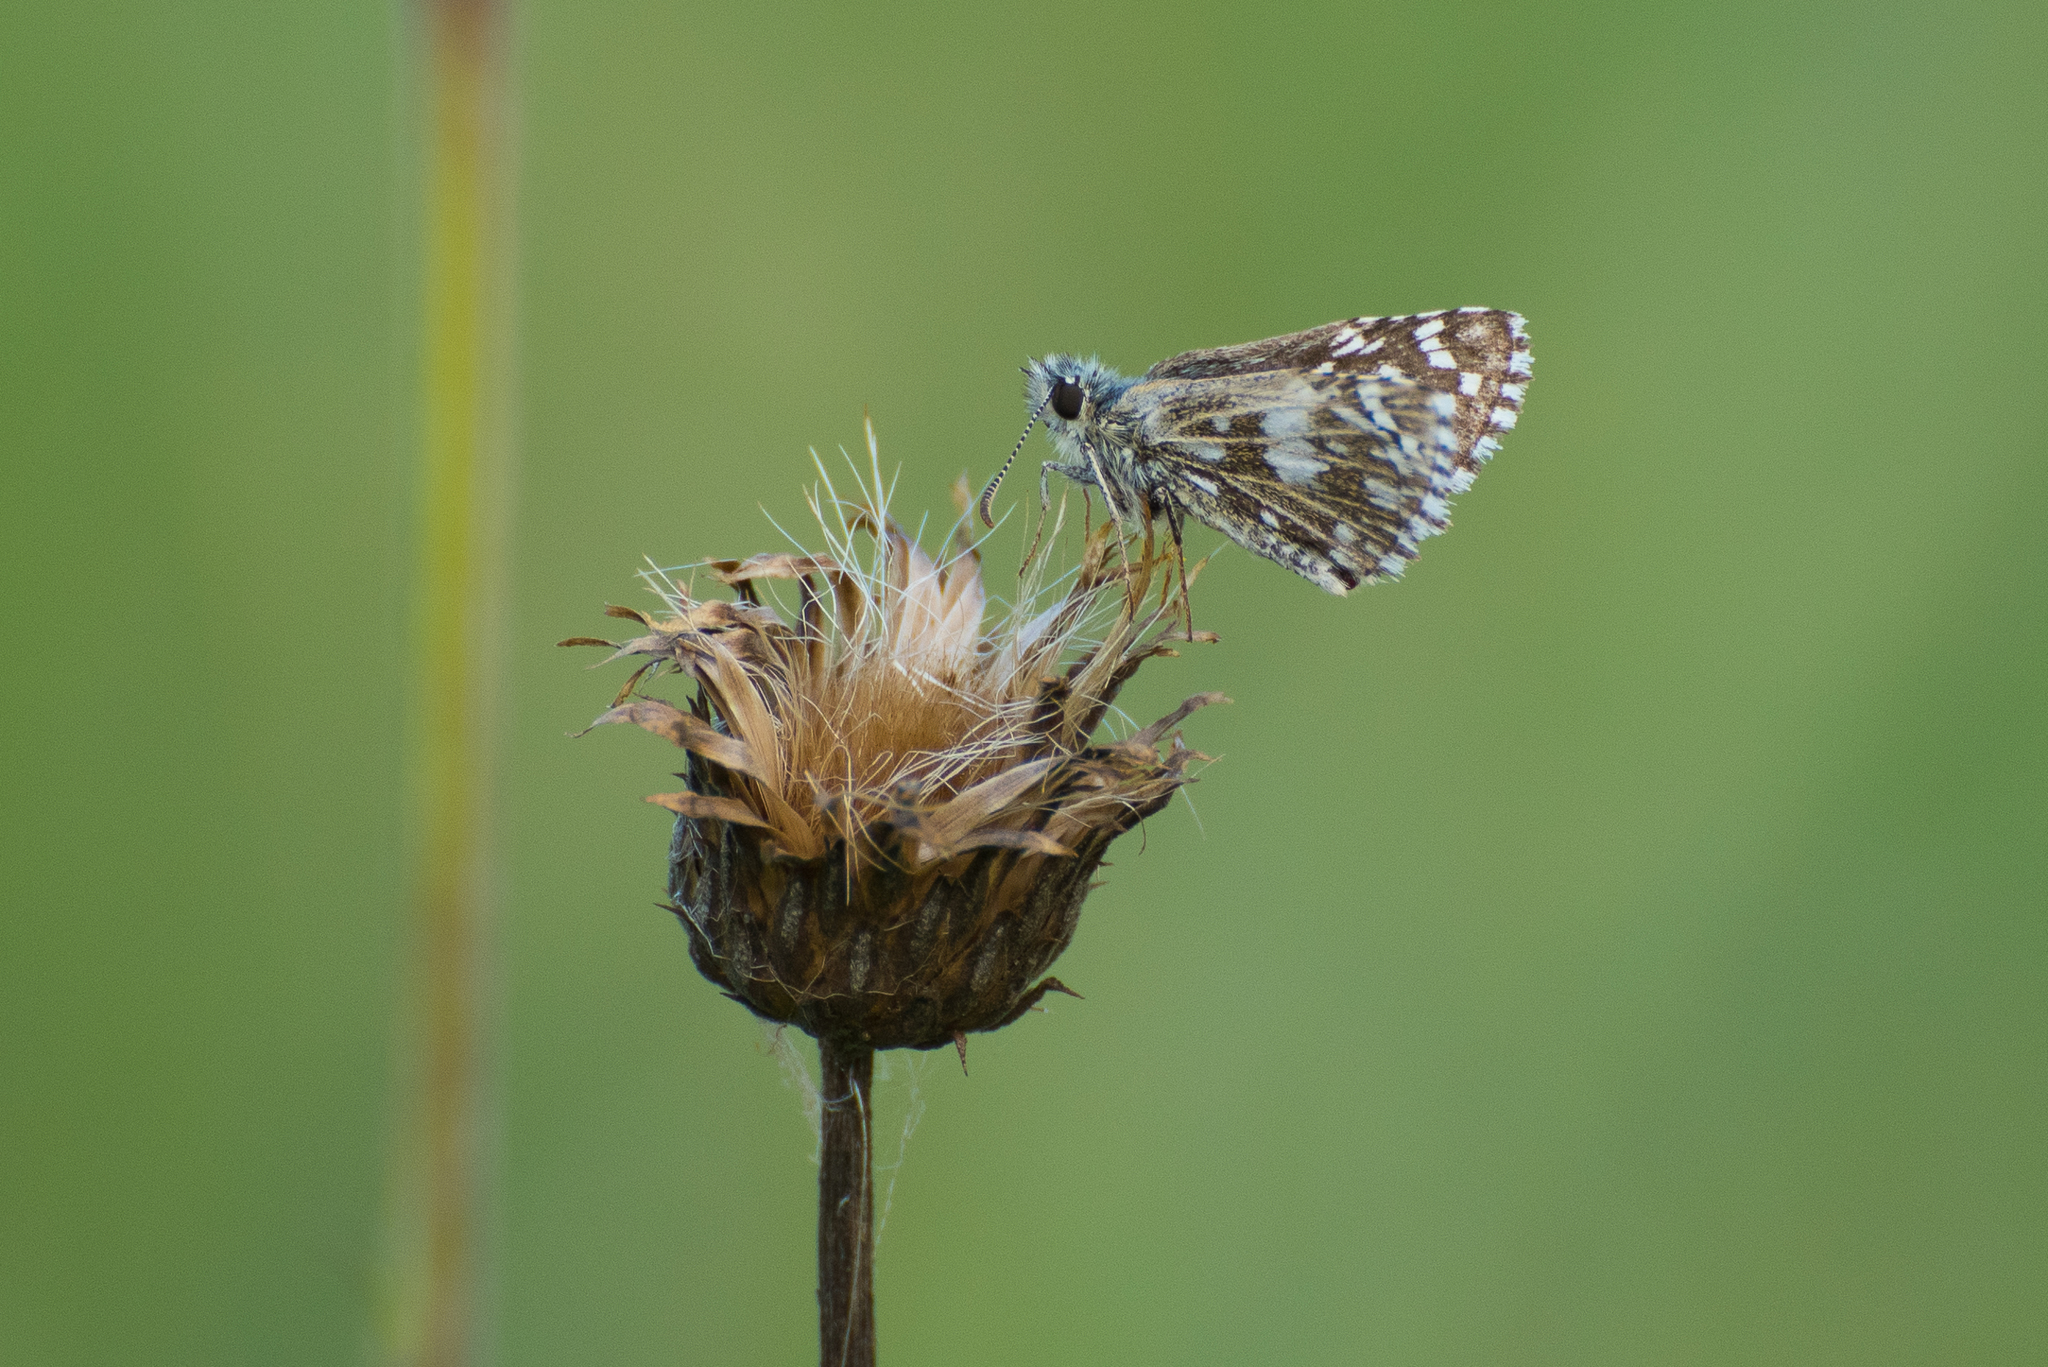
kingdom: Animalia
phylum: Arthropoda
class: Insecta
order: Lepidoptera
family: Hesperiidae
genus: Pyrgus
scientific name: Pyrgus malvae
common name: Grizzled skipper
